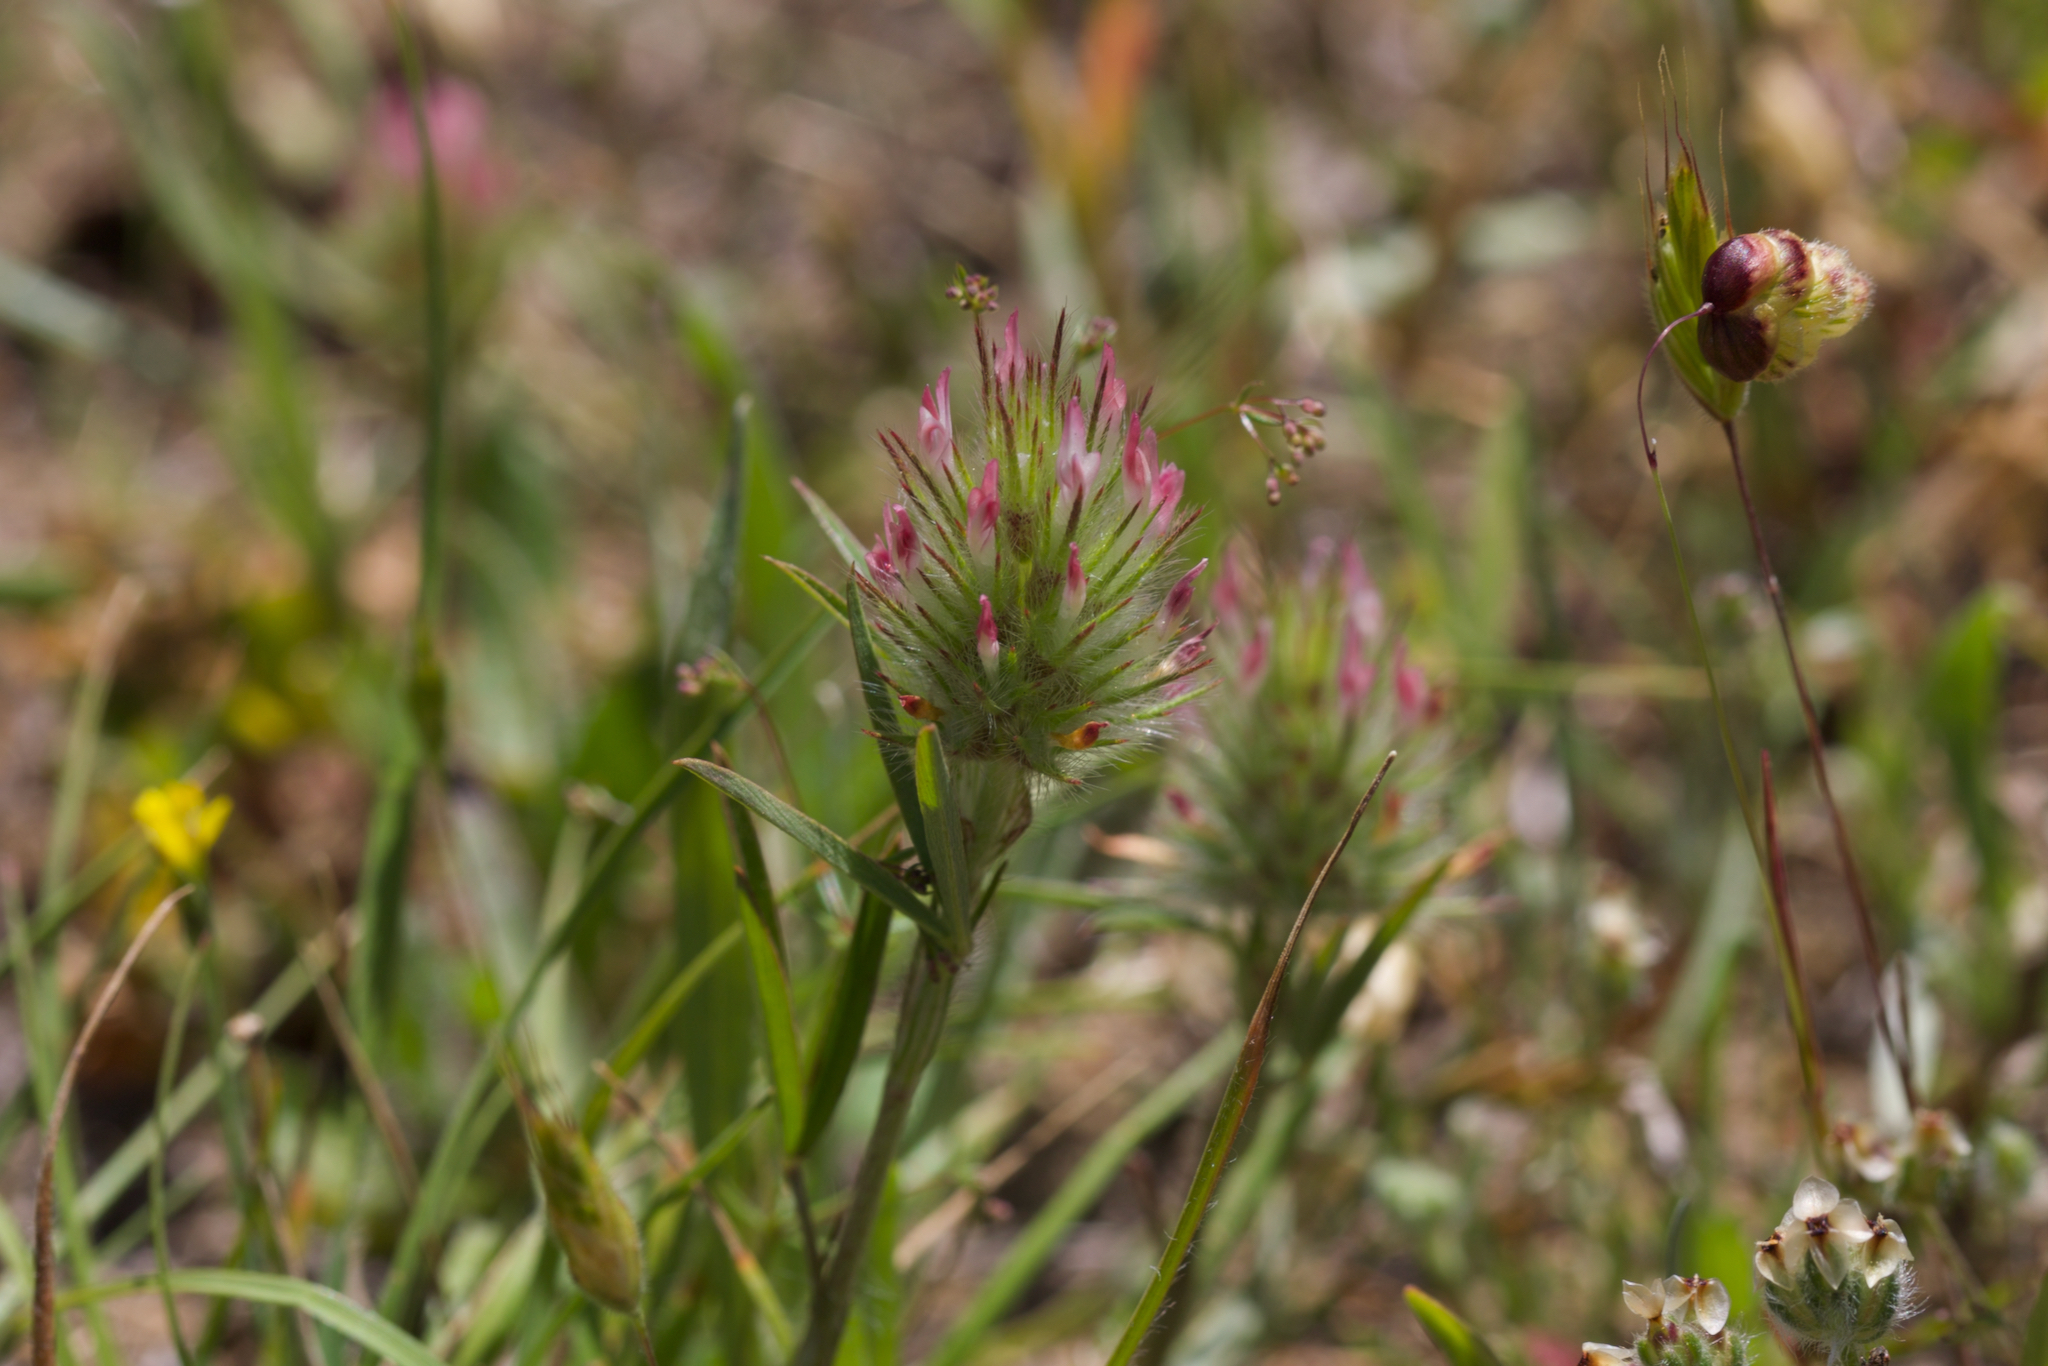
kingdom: Plantae
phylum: Tracheophyta
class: Magnoliopsida
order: Fabales
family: Fabaceae
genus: Trifolium
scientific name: Trifolium angustifolium
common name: Narrow clover
